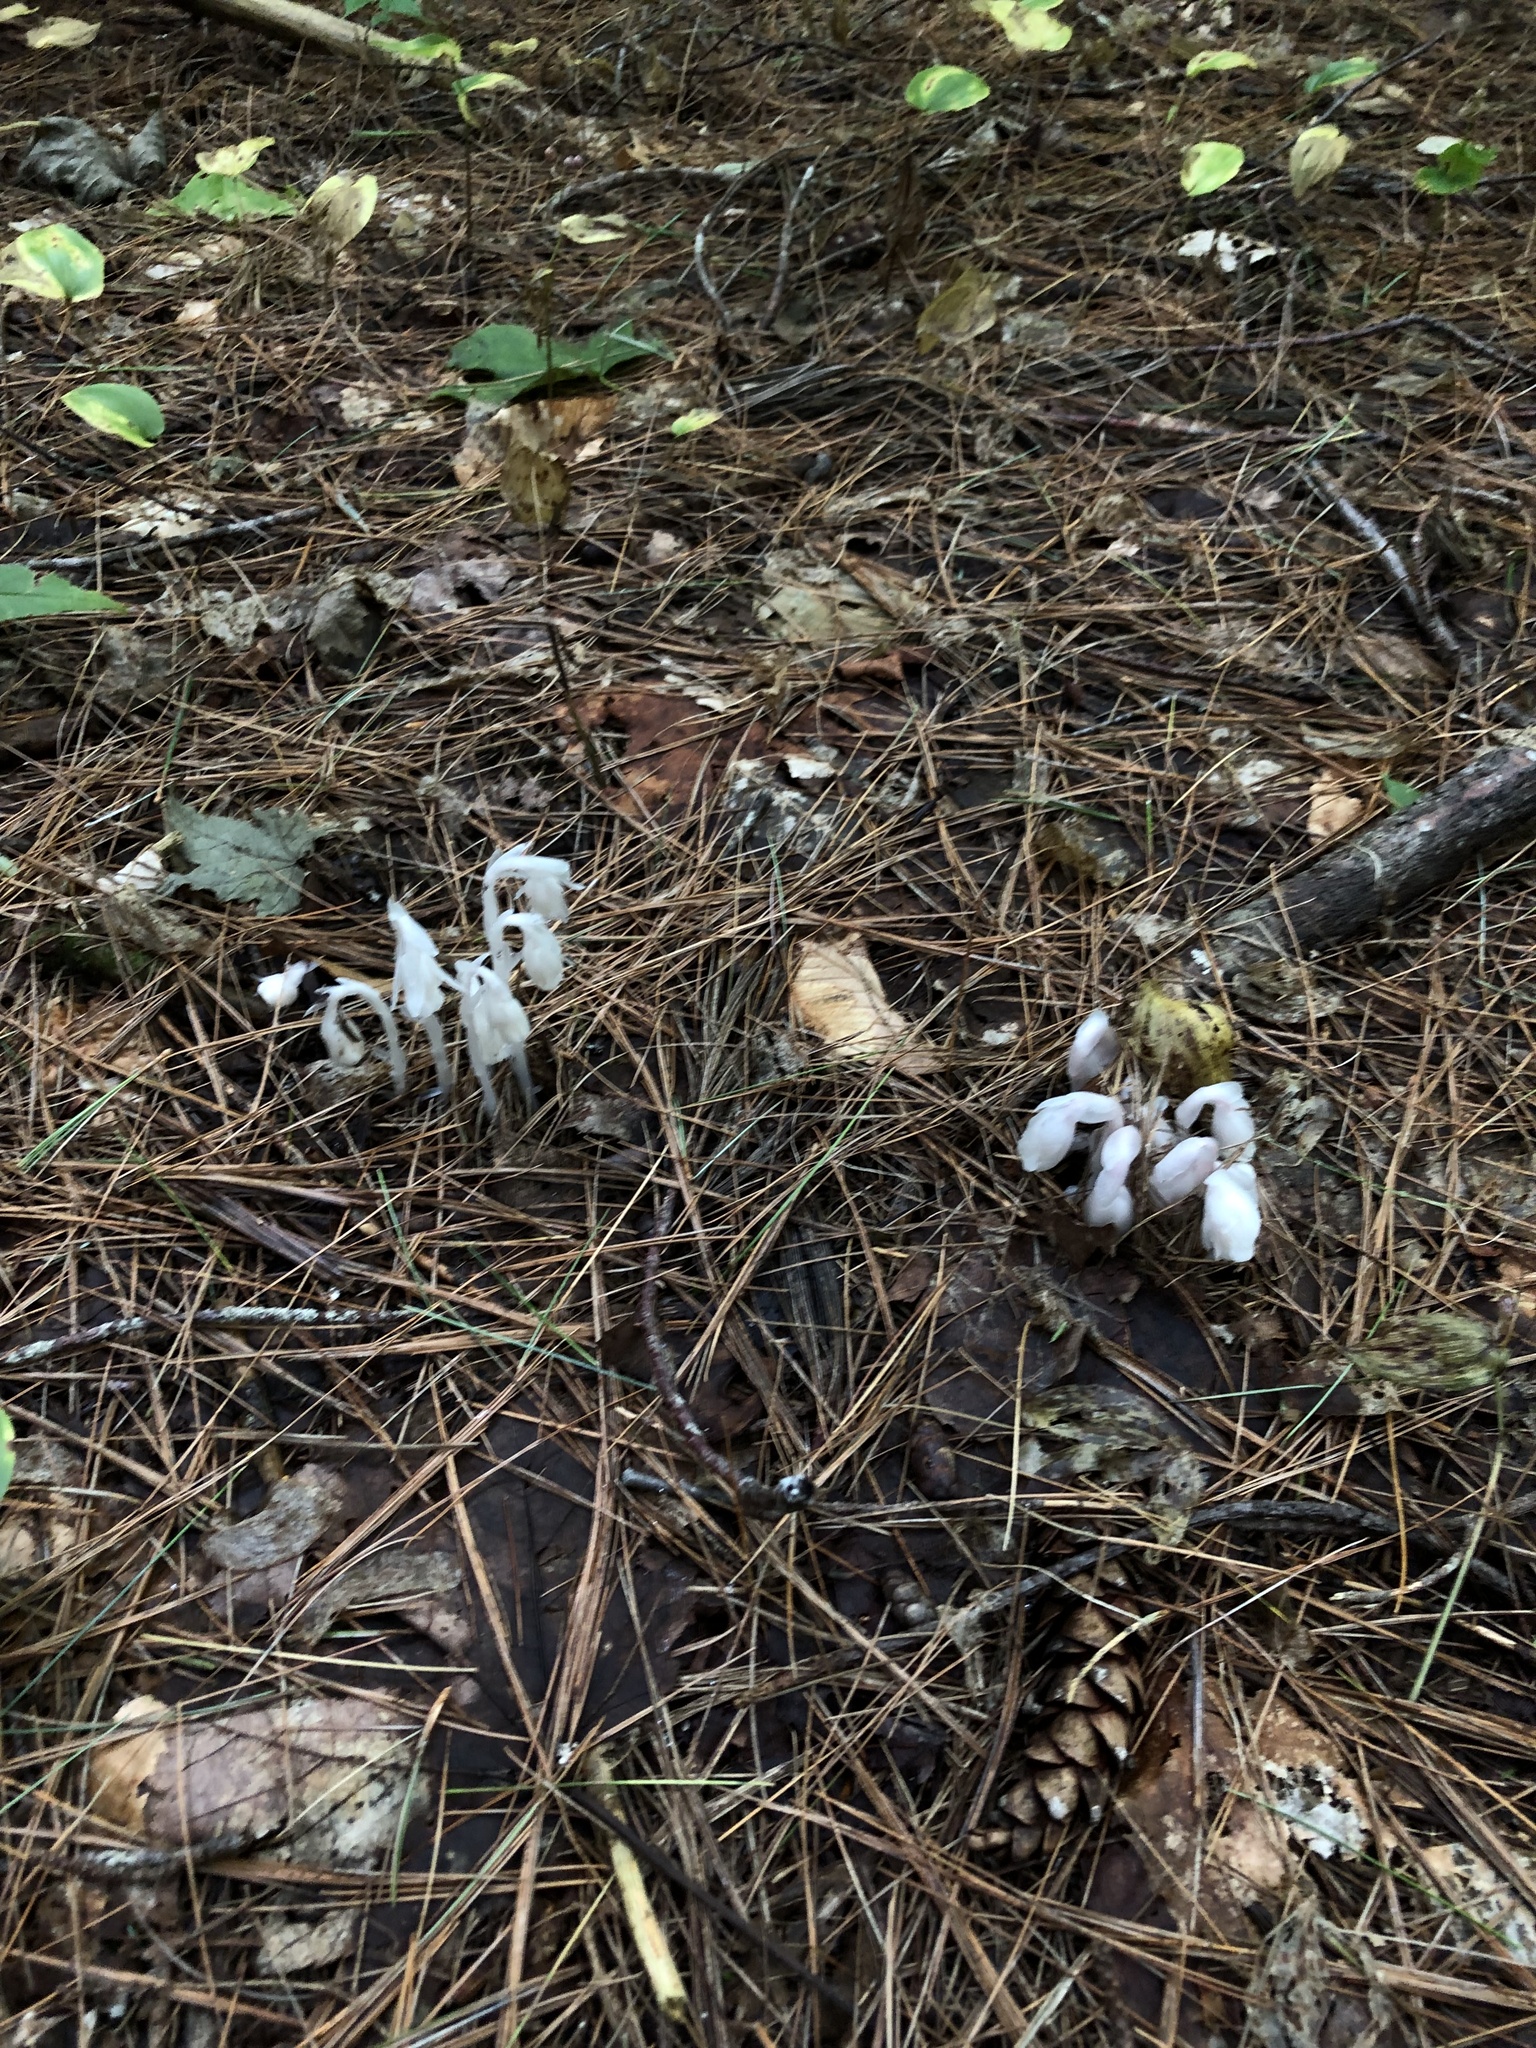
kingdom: Plantae
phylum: Tracheophyta
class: Magnoliopsida
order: Ericales
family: Ericaceae
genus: Monotropa
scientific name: Monotropa uniflora
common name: Convulsion root
